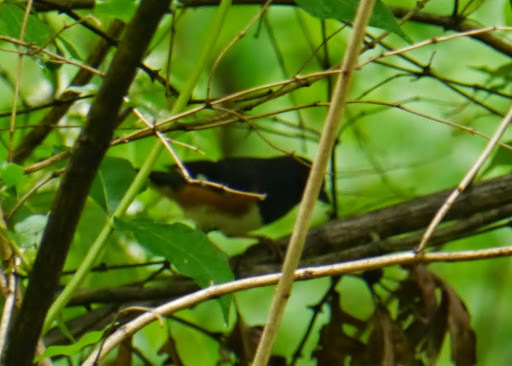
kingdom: Animalia
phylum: Chordata
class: Aves
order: Passeriformes
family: Passerellidae
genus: Pipilo
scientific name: Pipilo erythrophthalmus
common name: Eastern towhee
